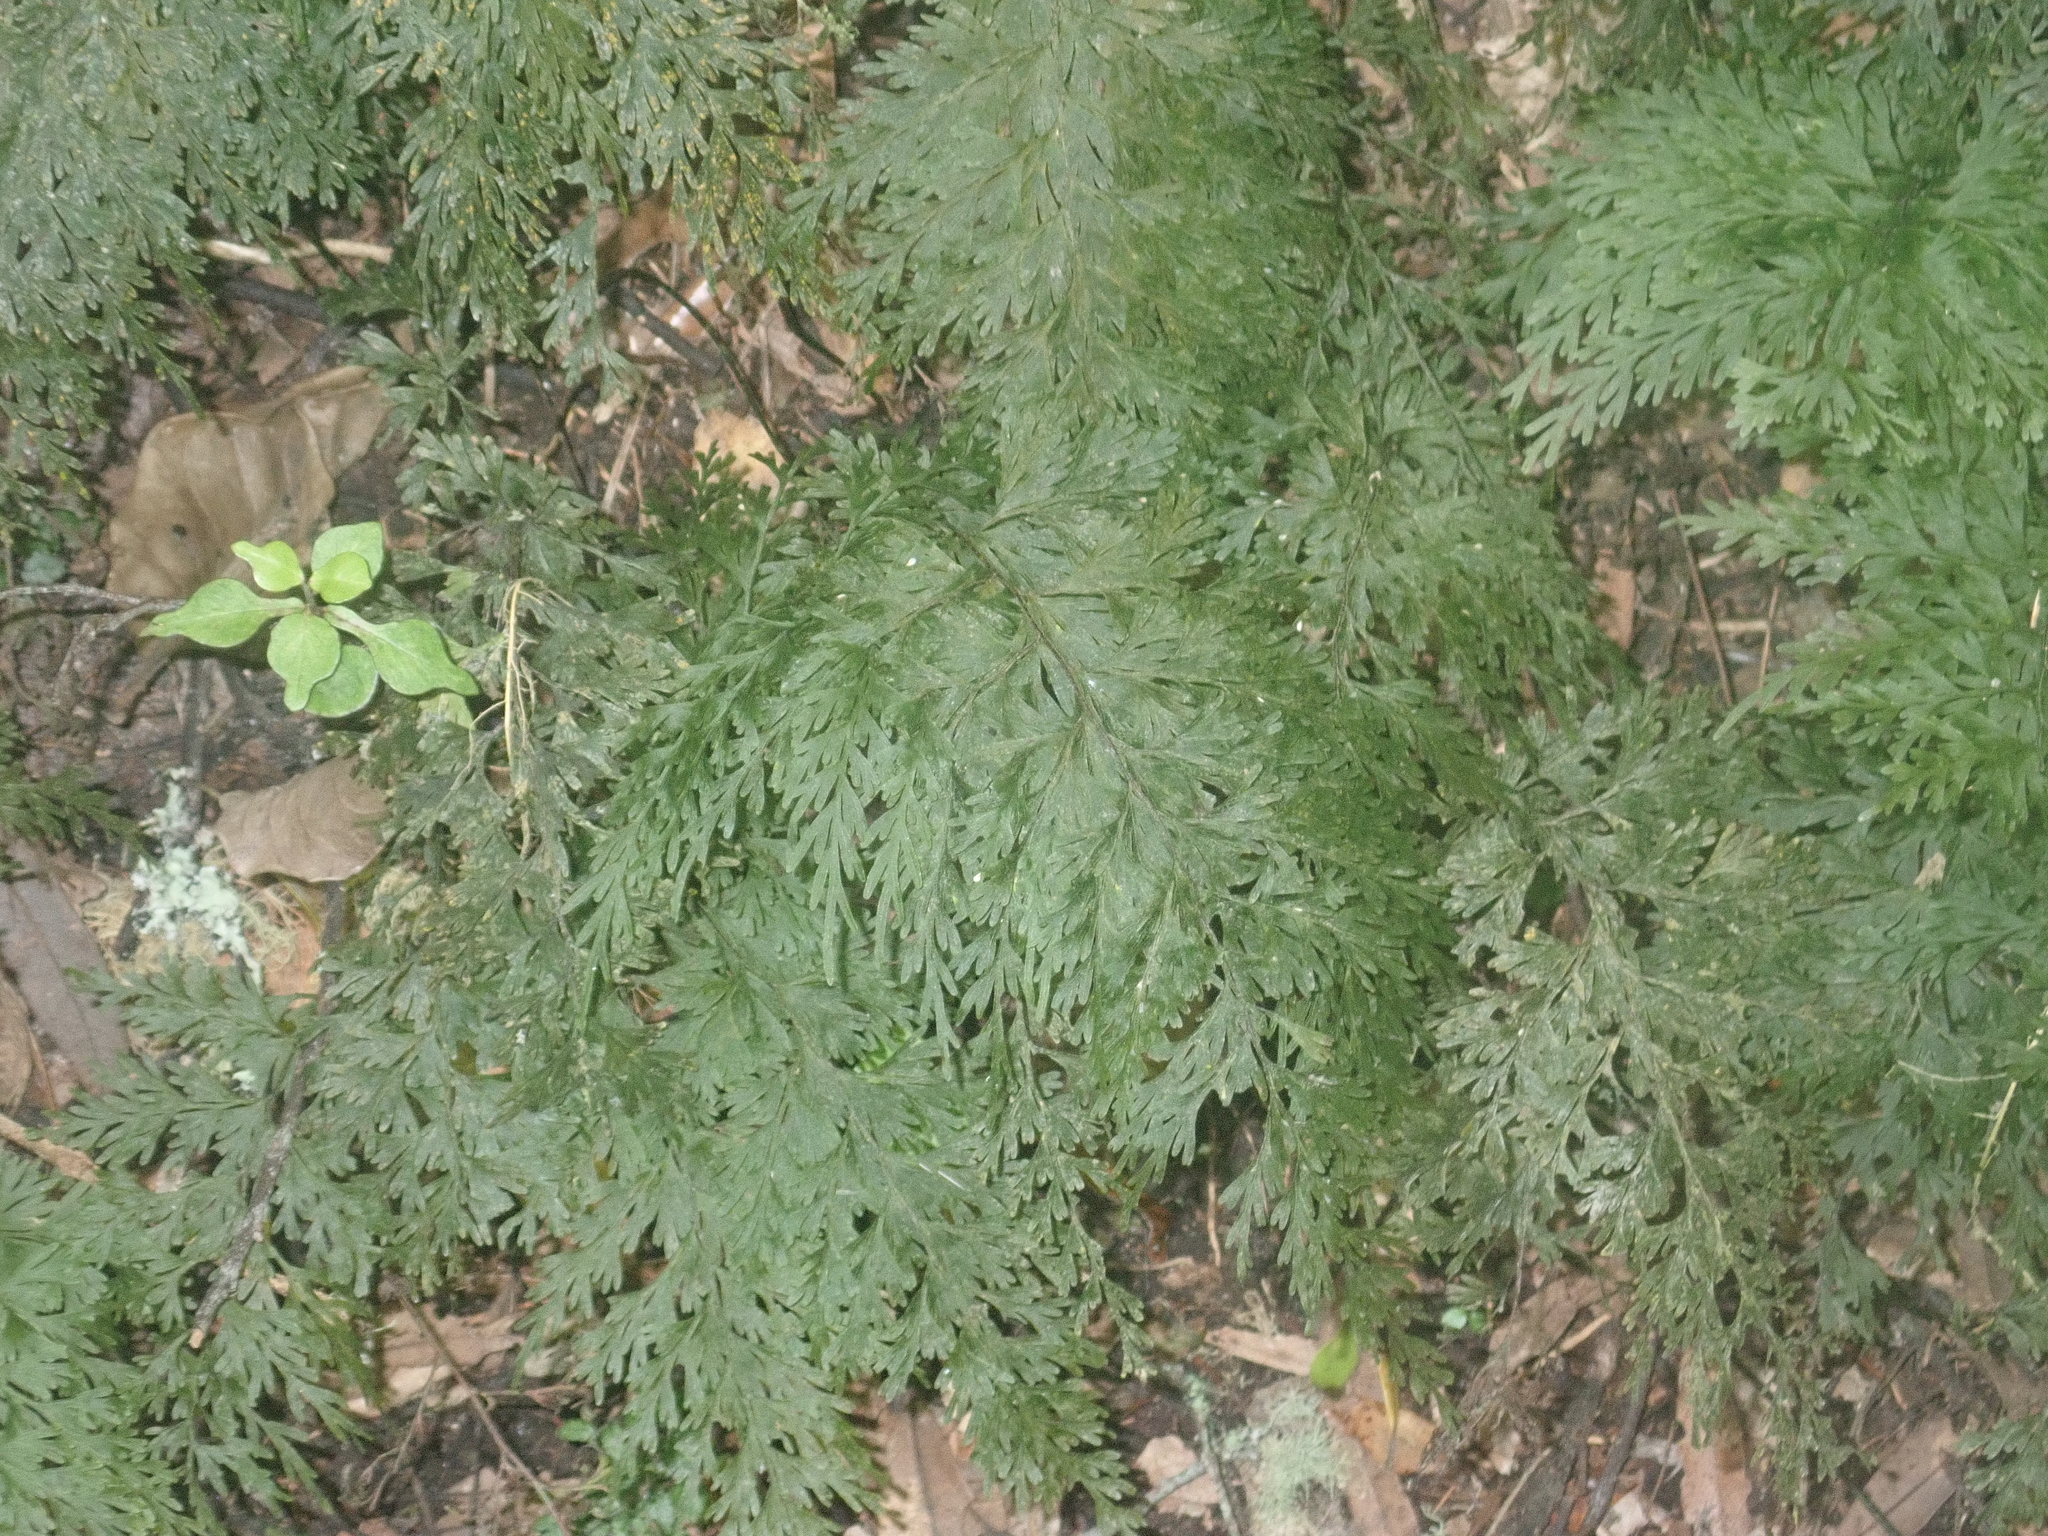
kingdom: Plantae
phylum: Tracheophyta
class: Polypodiopsida
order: Hymenophyllales
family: Hymenophyllaceae
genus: Hymenophyllum
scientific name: Hymenophyllum demissum
